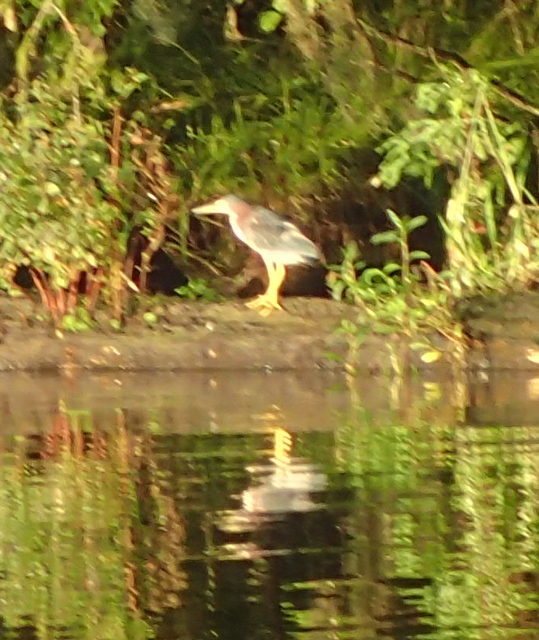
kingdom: Animalia
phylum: Chordata
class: Aves
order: Pelecaniformes
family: Ardeidae
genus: Butorides
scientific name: Butorides virescens
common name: Green heron
